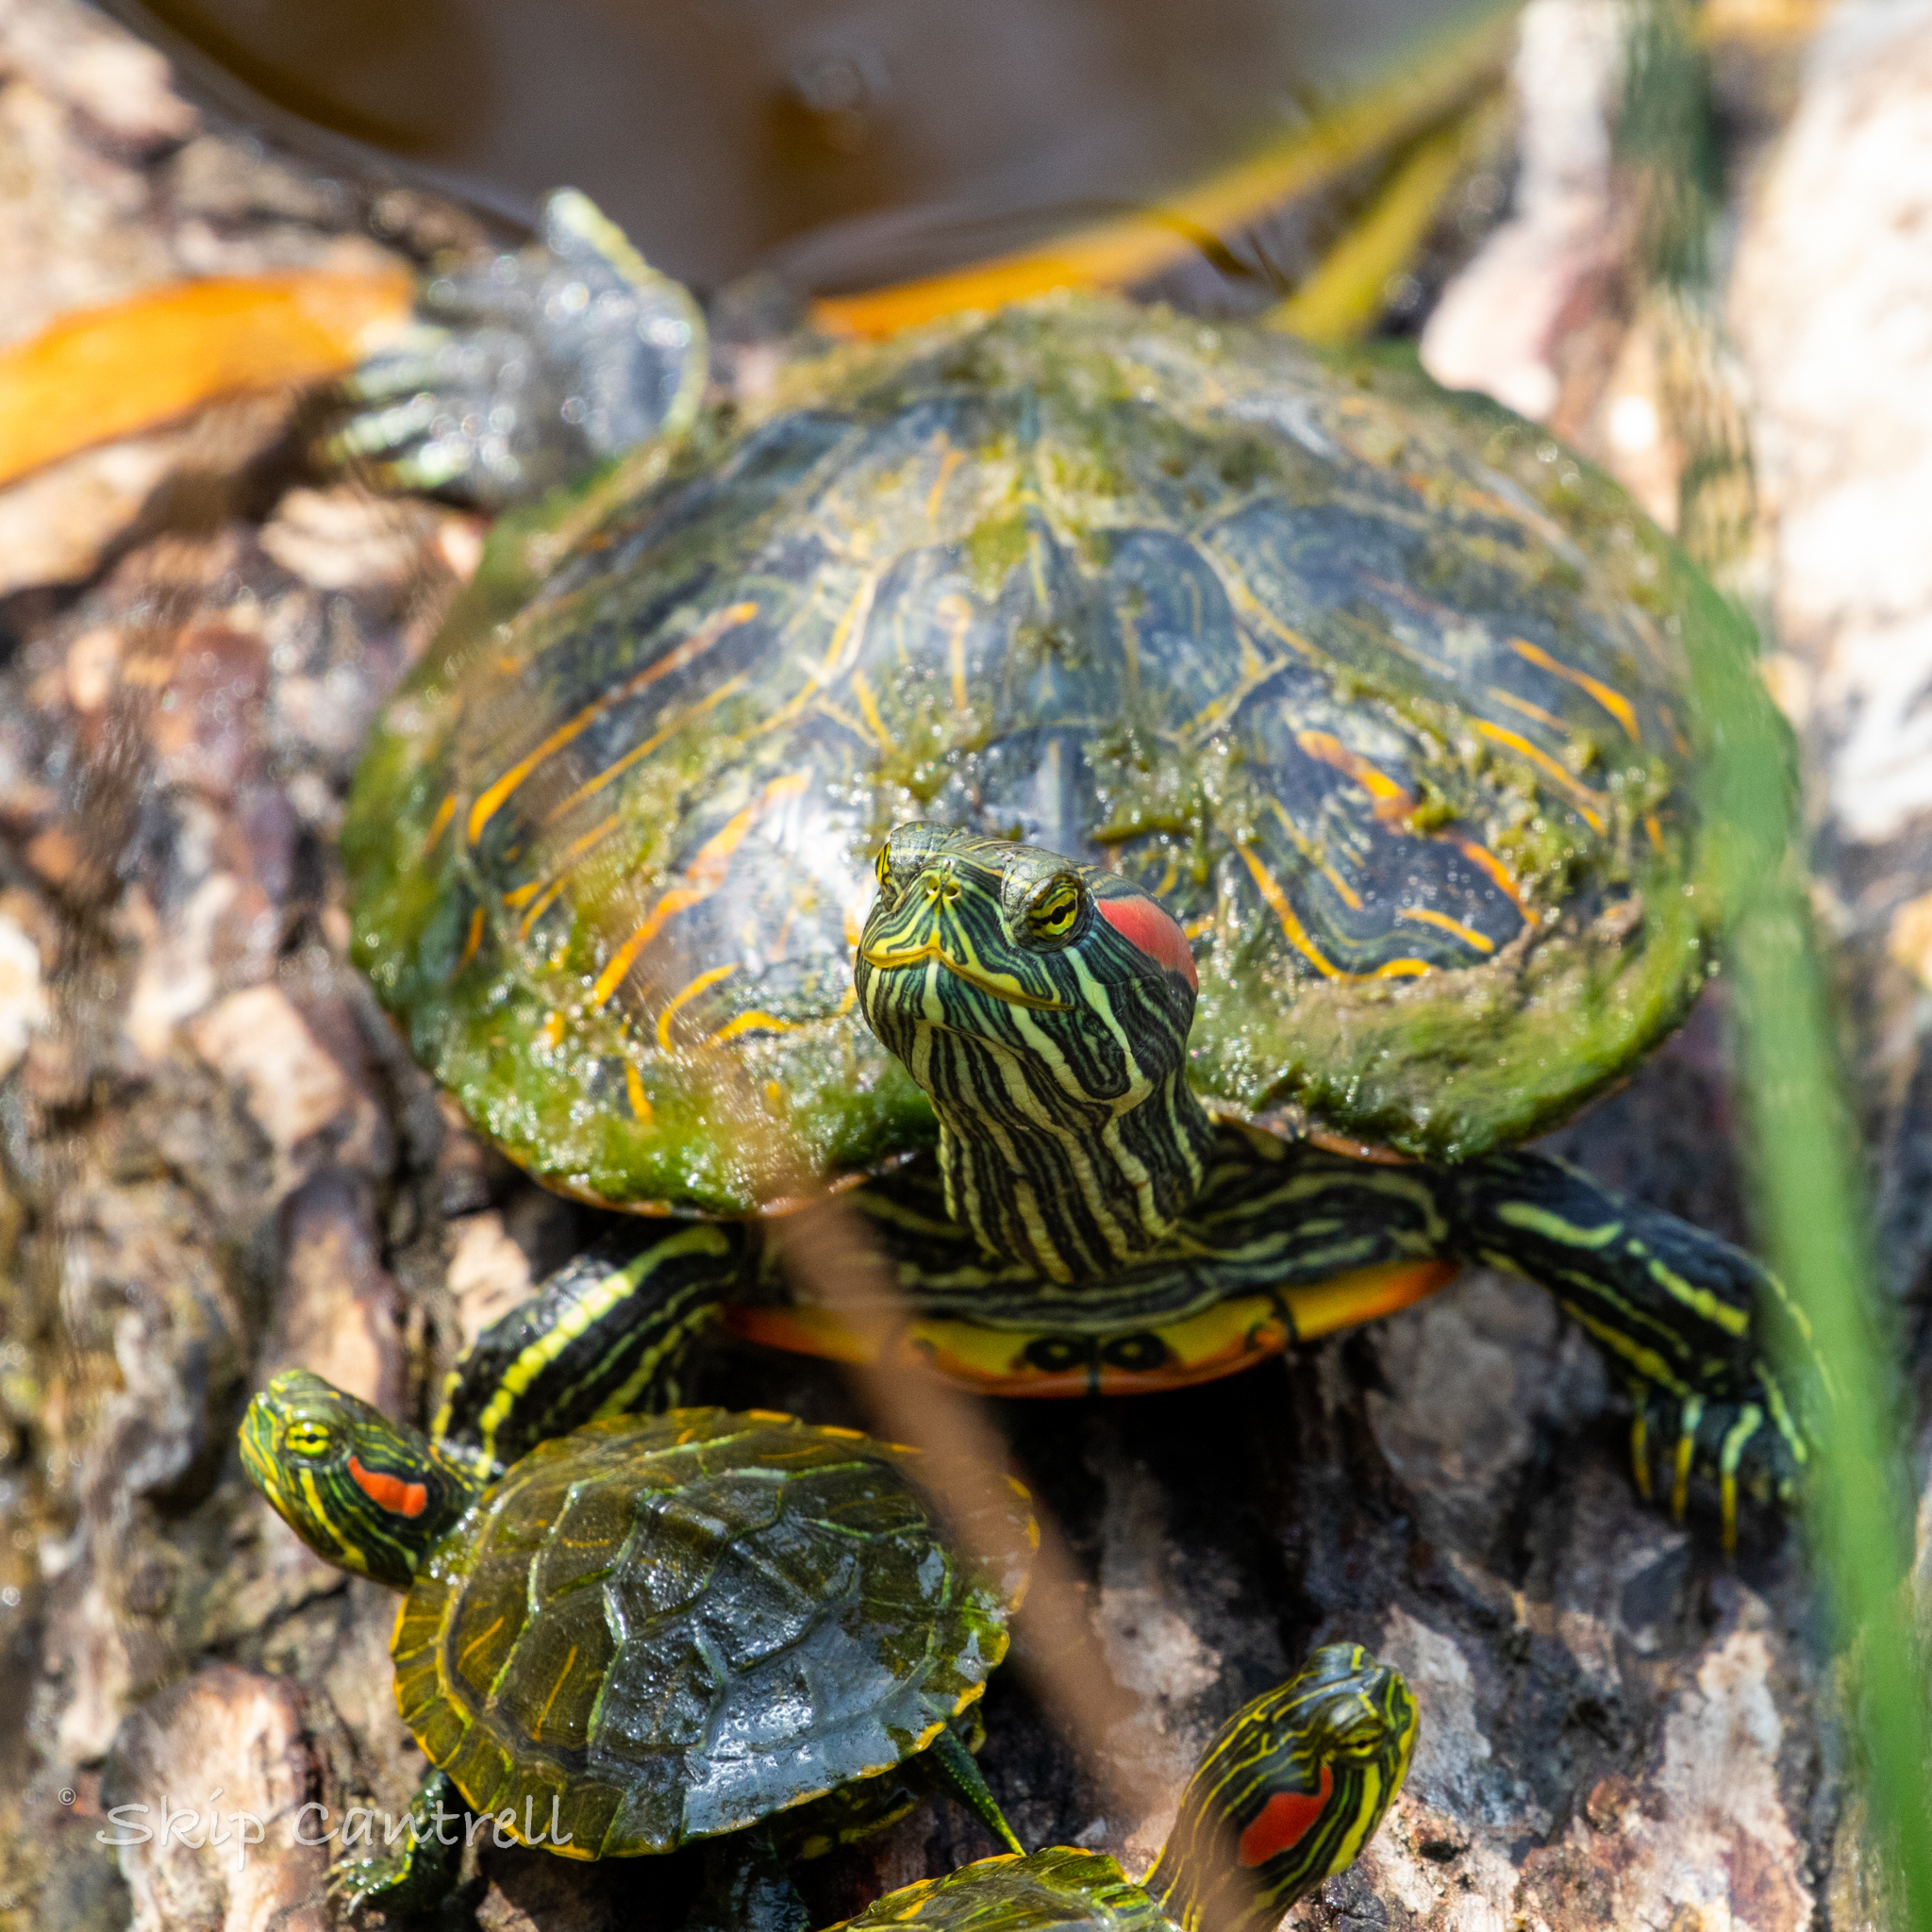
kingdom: Animalia
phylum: Chordata
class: Testudines
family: Emydidae
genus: Trachemys
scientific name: Trachemys scripta
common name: Slider
